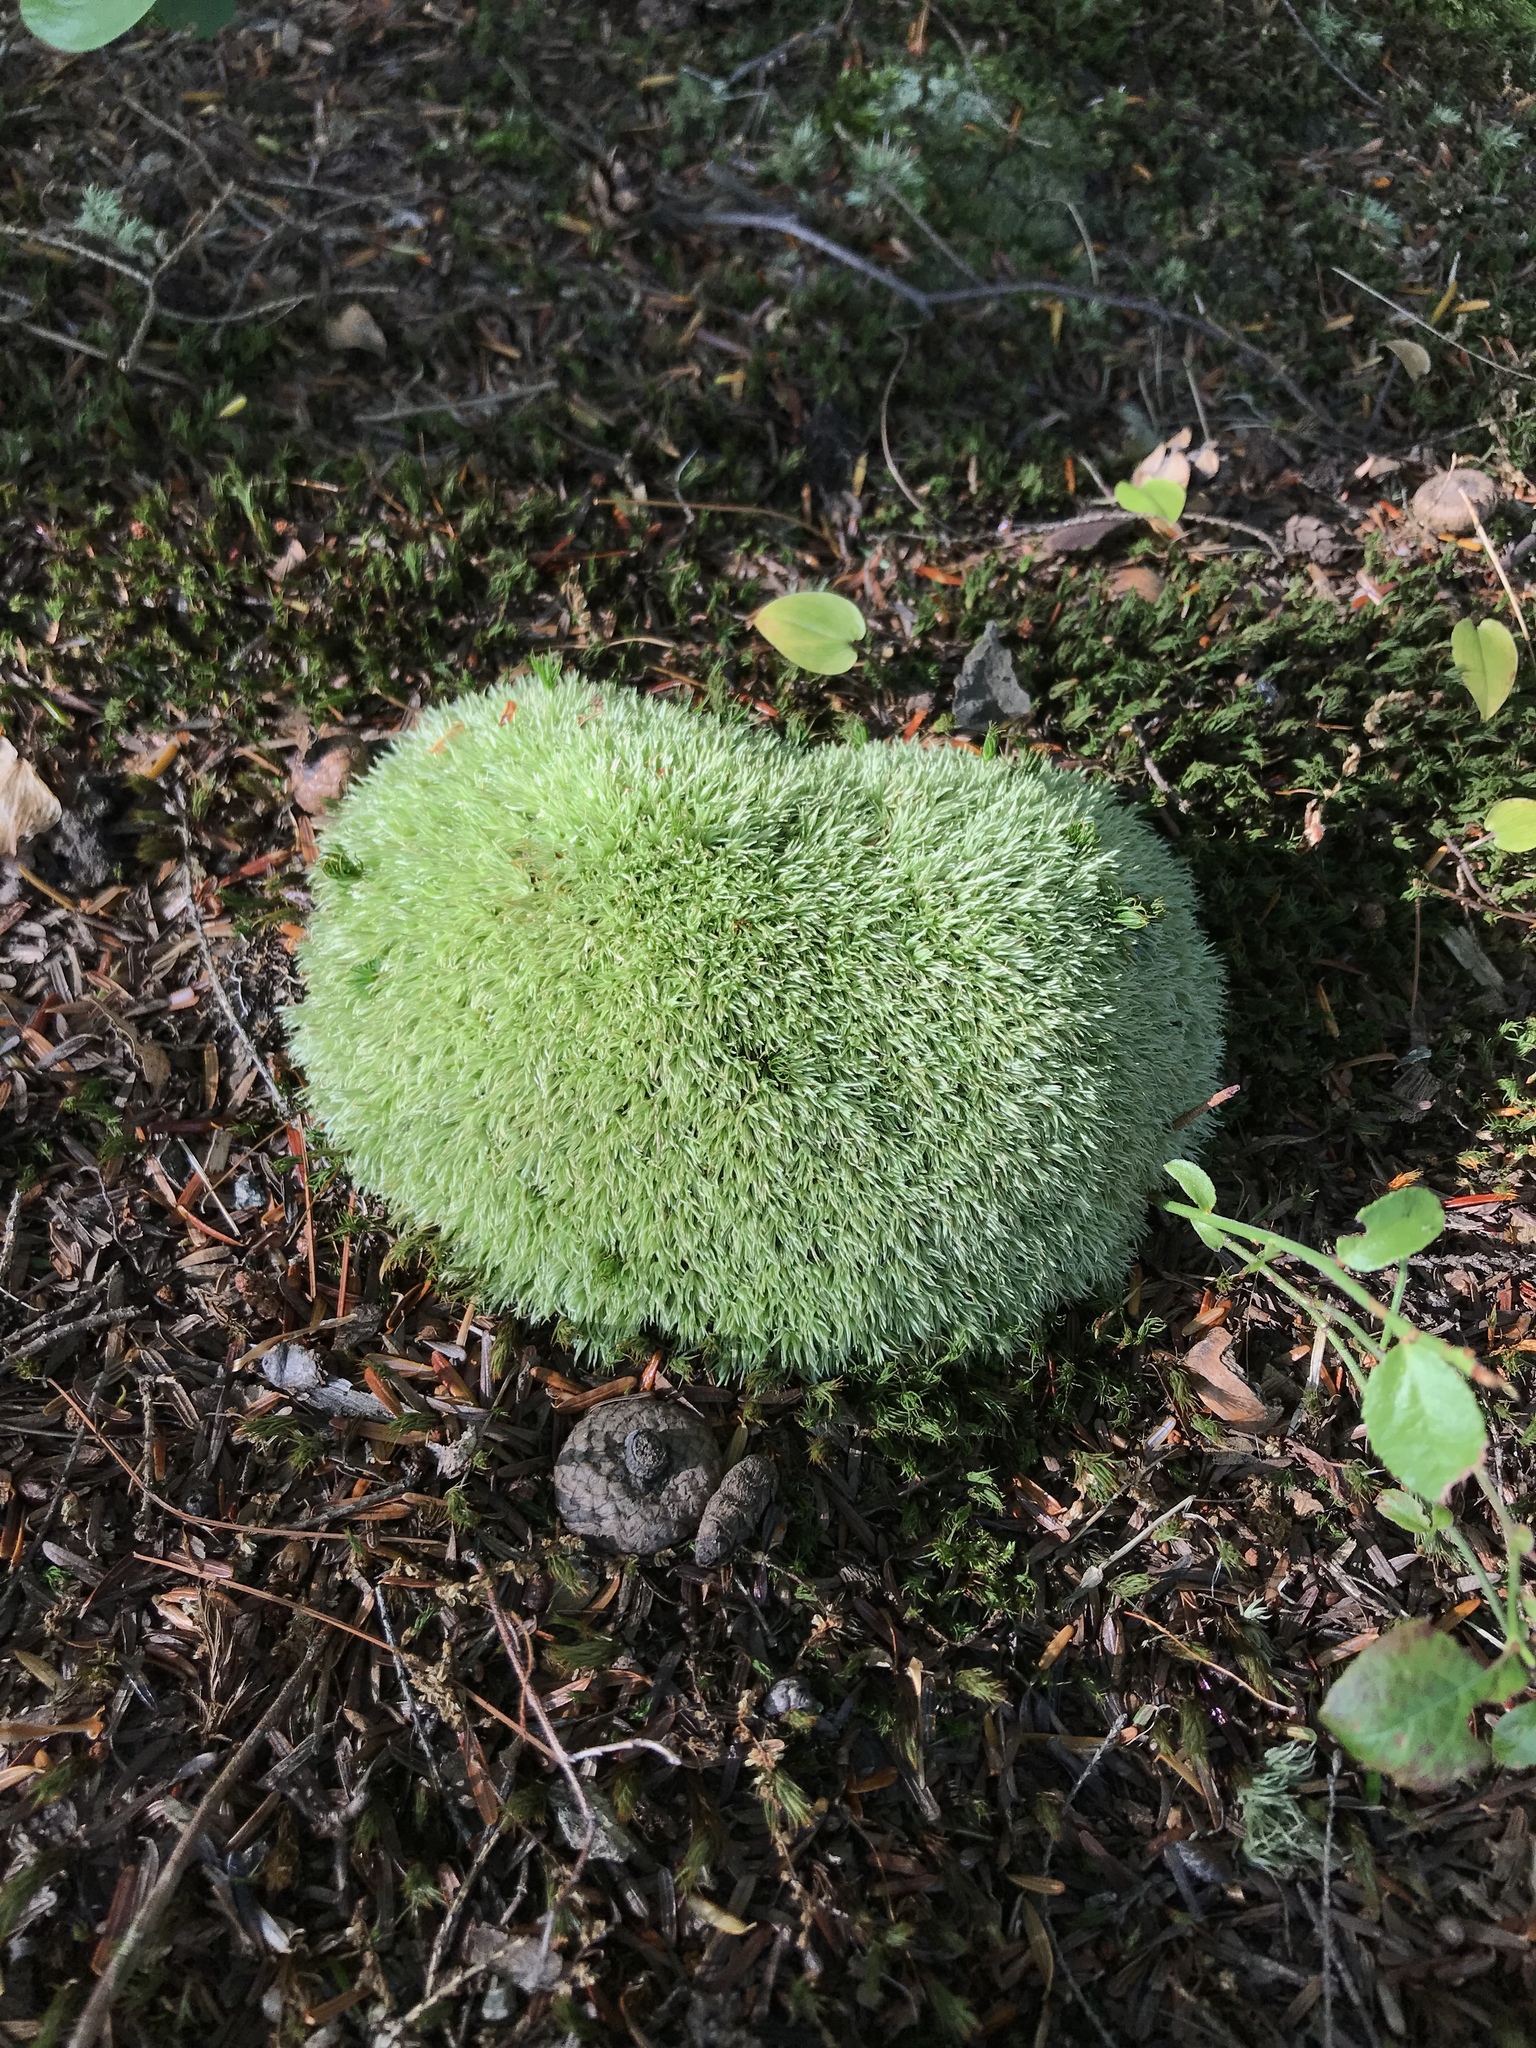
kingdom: Plantae
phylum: Bryophyta
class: Bryopsida
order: Dicranales
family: Leucobryaceae
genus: Leucobryum
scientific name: Leucobryum glaucum
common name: Large white-moss
